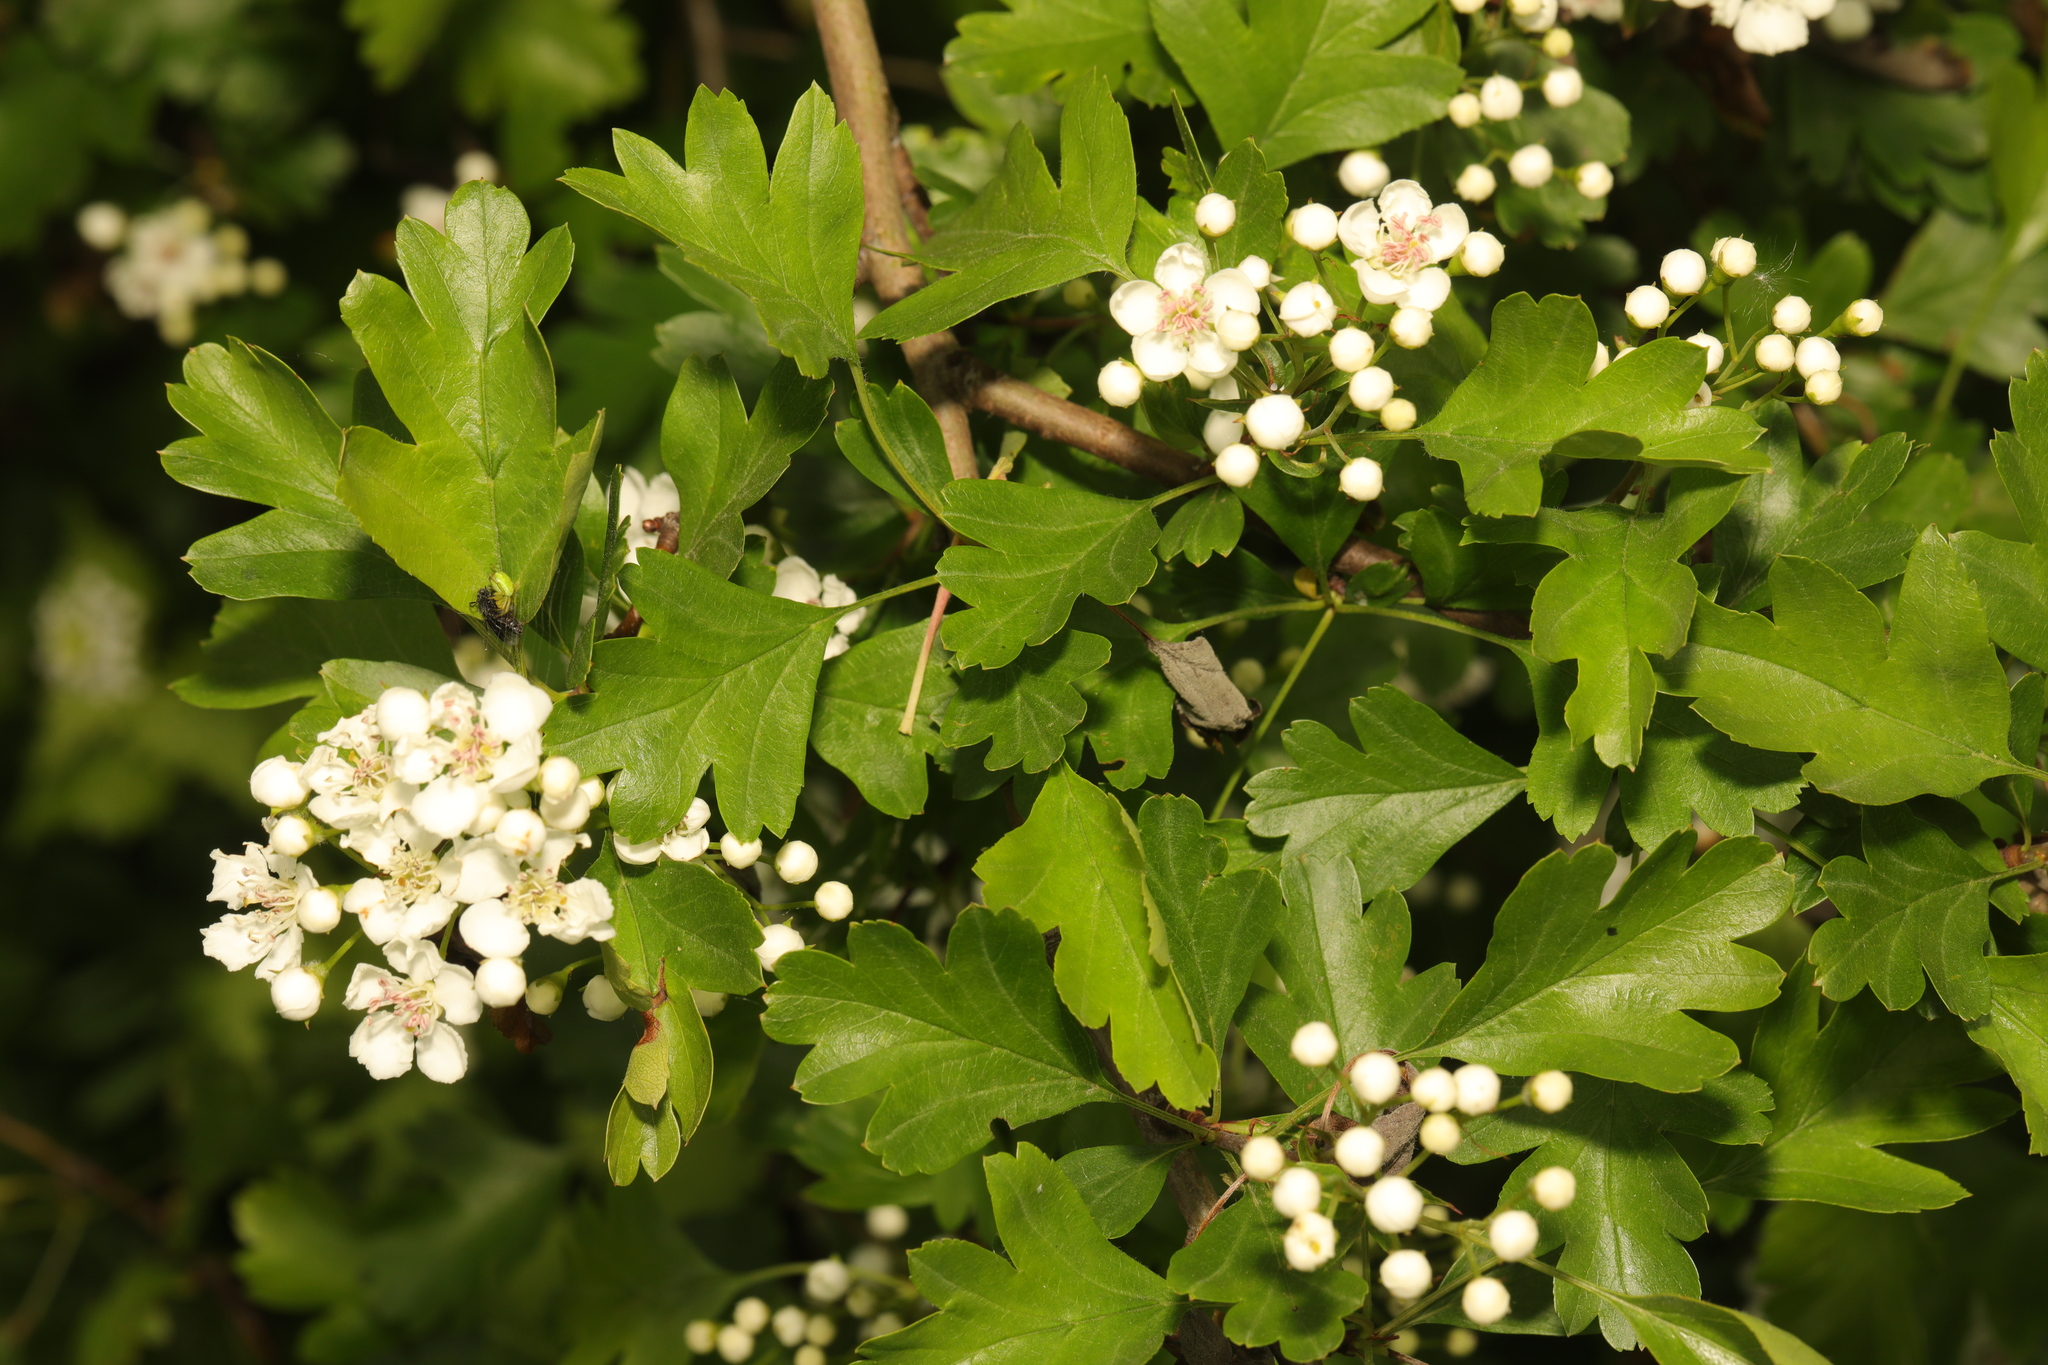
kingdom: Plantae
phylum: Tracheophyta
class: Magnoliopsida
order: Rosales
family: Rosaceae
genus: Crataegus
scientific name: Crataegus monogyna
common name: Hawthorn
